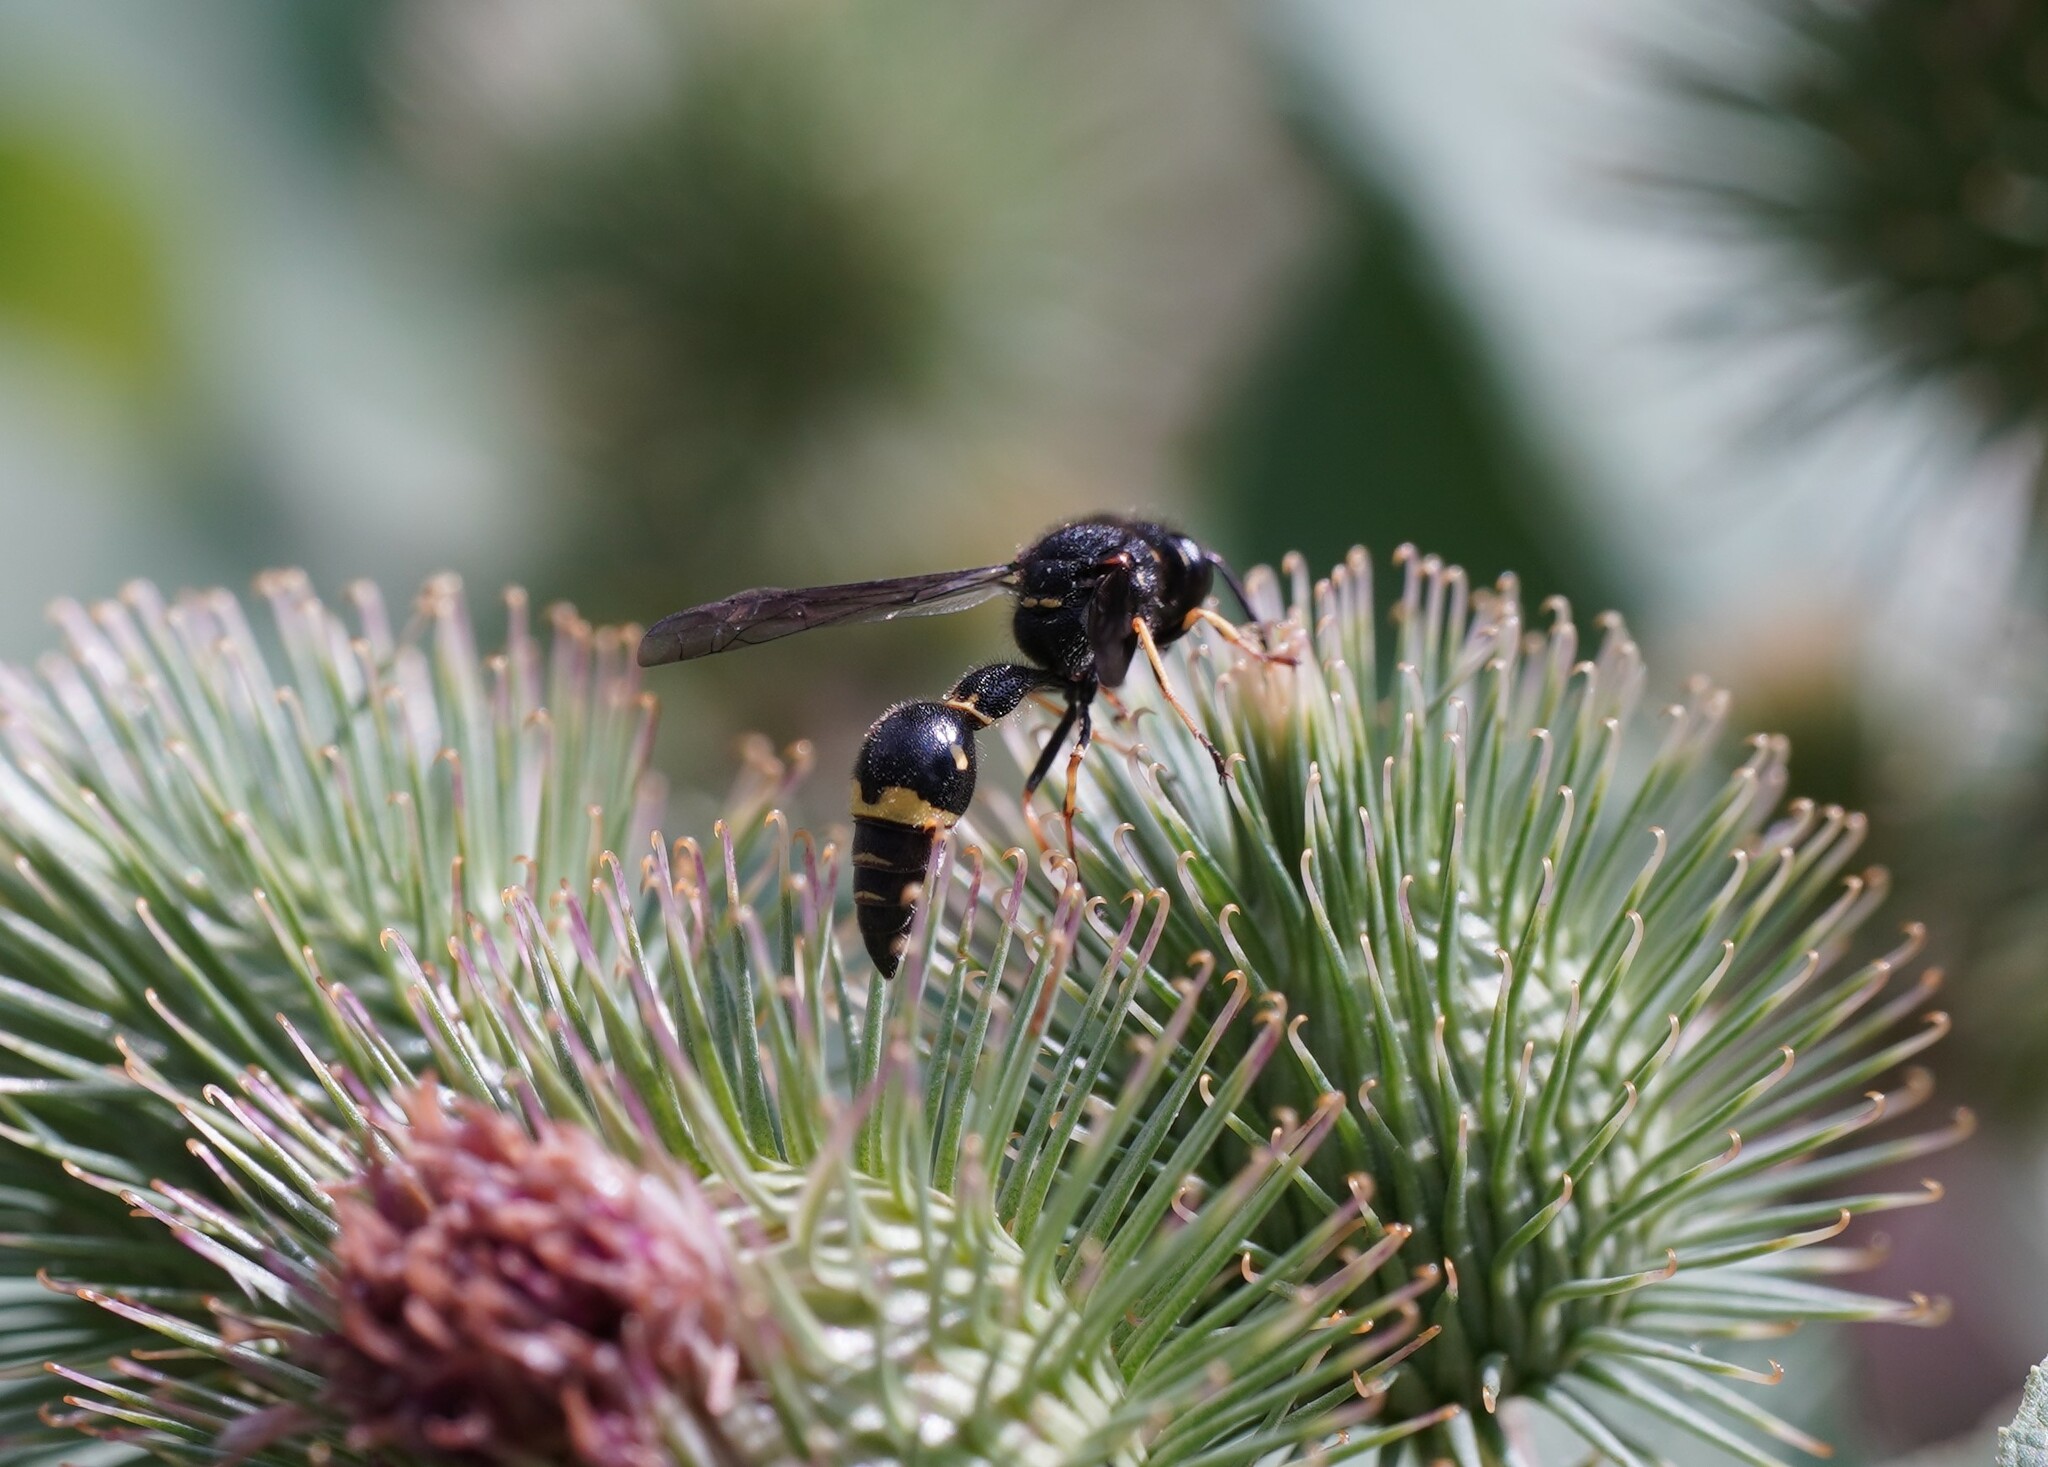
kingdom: Animalia
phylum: Arthropoda
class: Insecta
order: Hymenoptera
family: Vespidae
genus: Eumenes
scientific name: Eumenes
